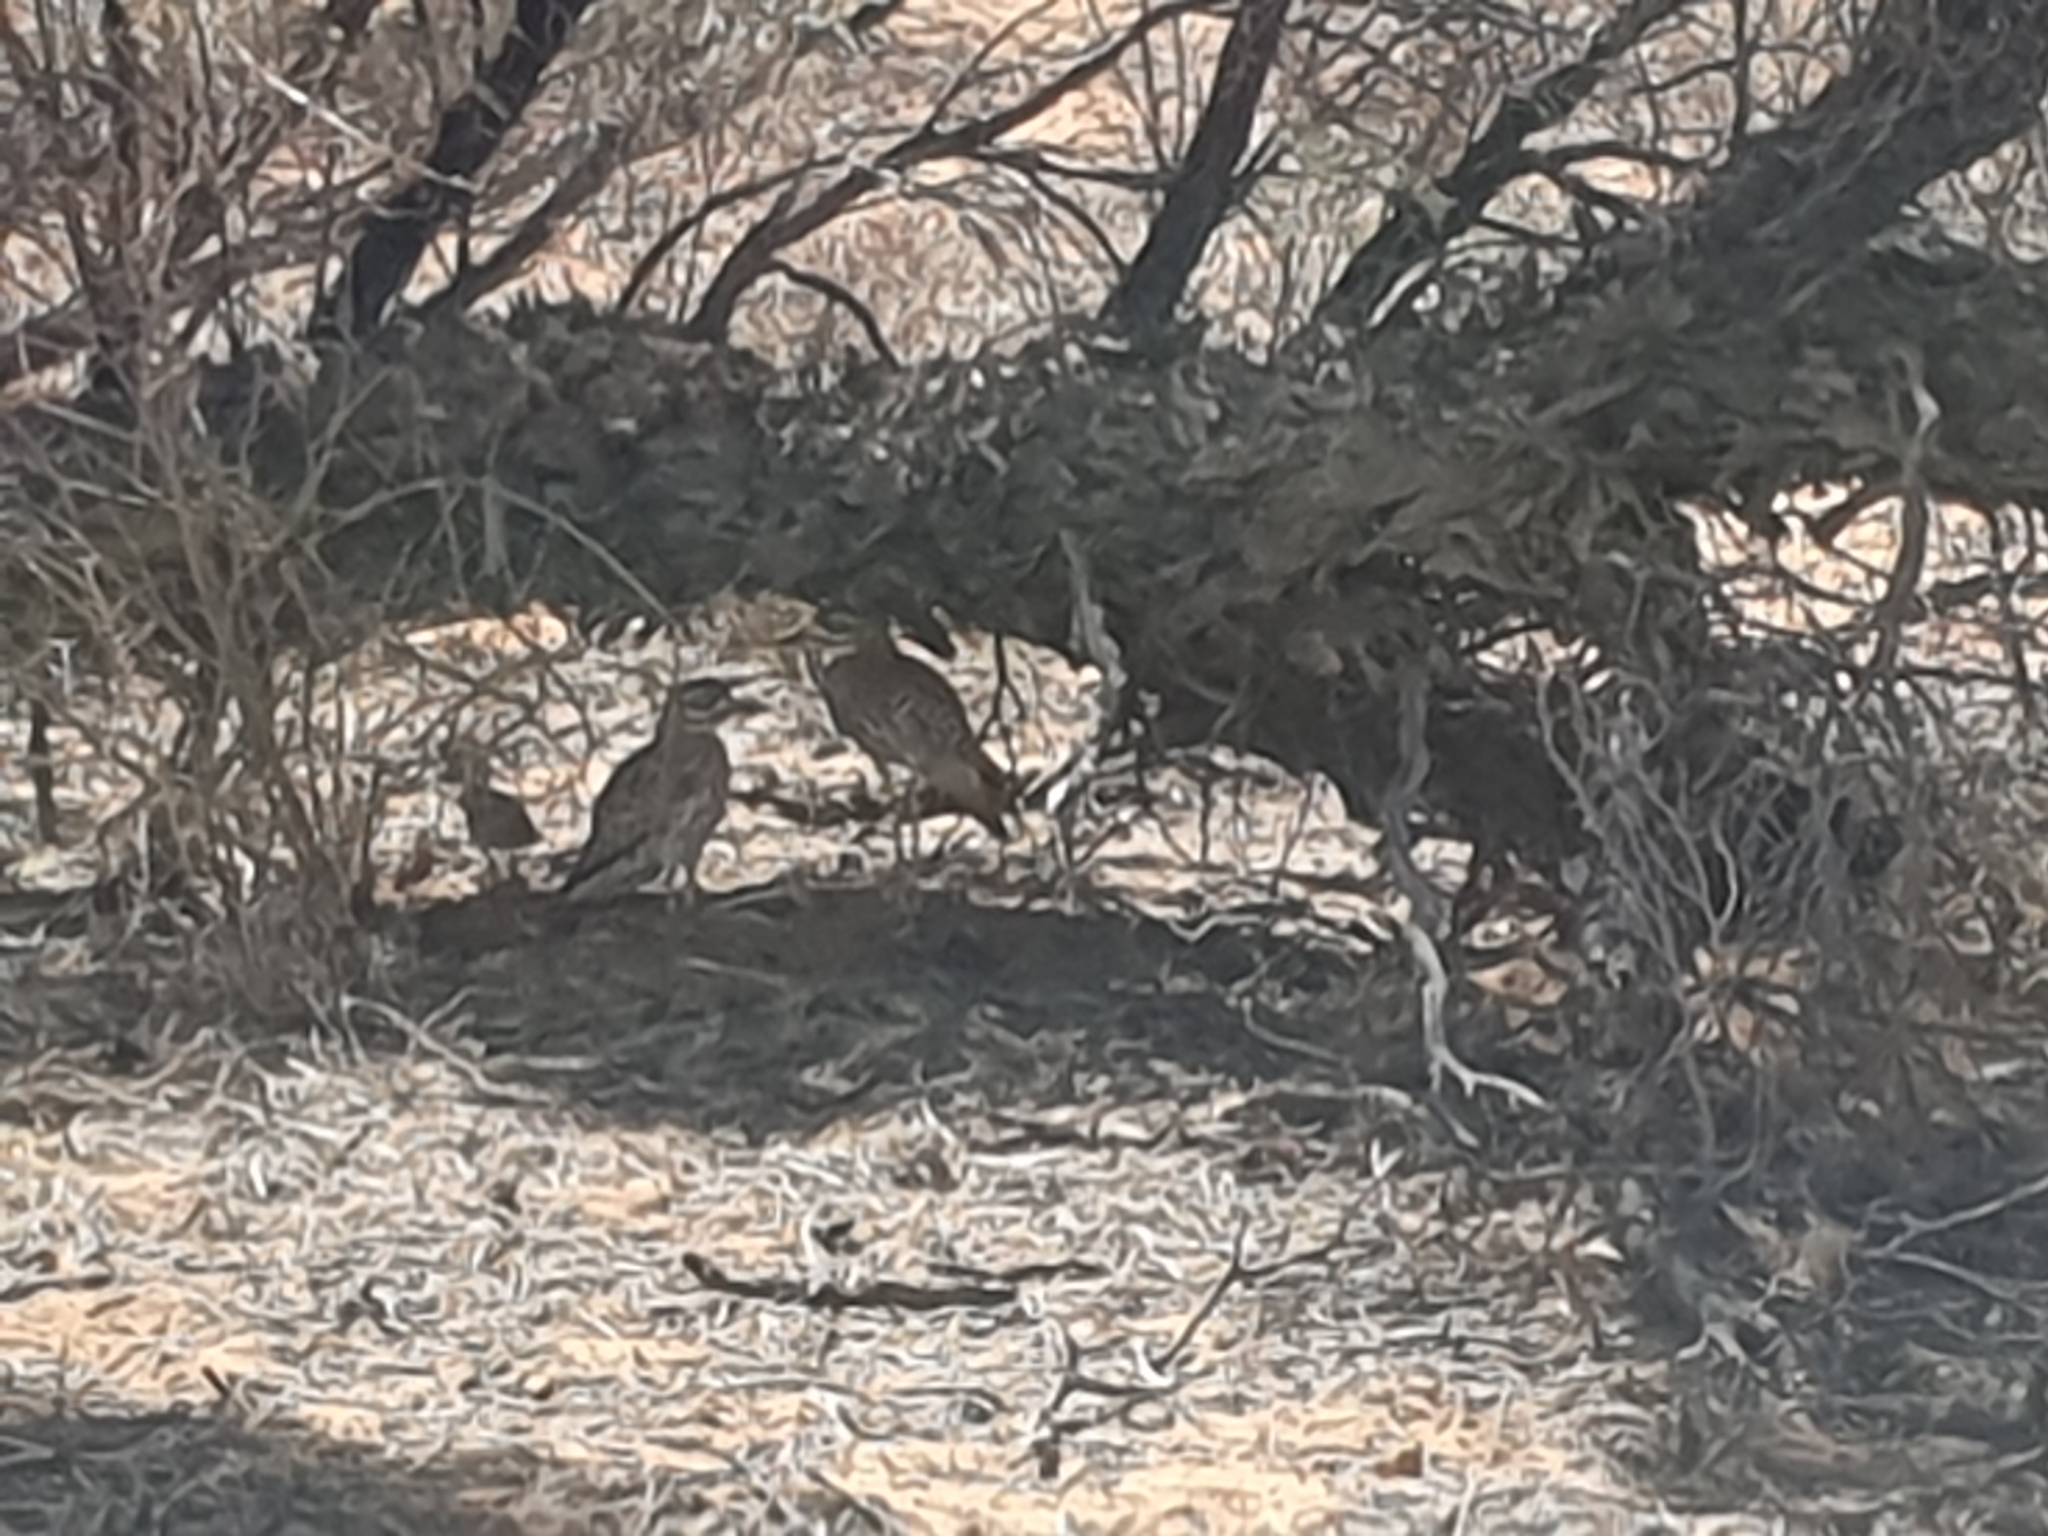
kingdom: Animalia
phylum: Chordata
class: Aves
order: Charadriiformes
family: Burhinidae
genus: Burhinus
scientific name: Burhinus capensis
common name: Spotted thick-knee
